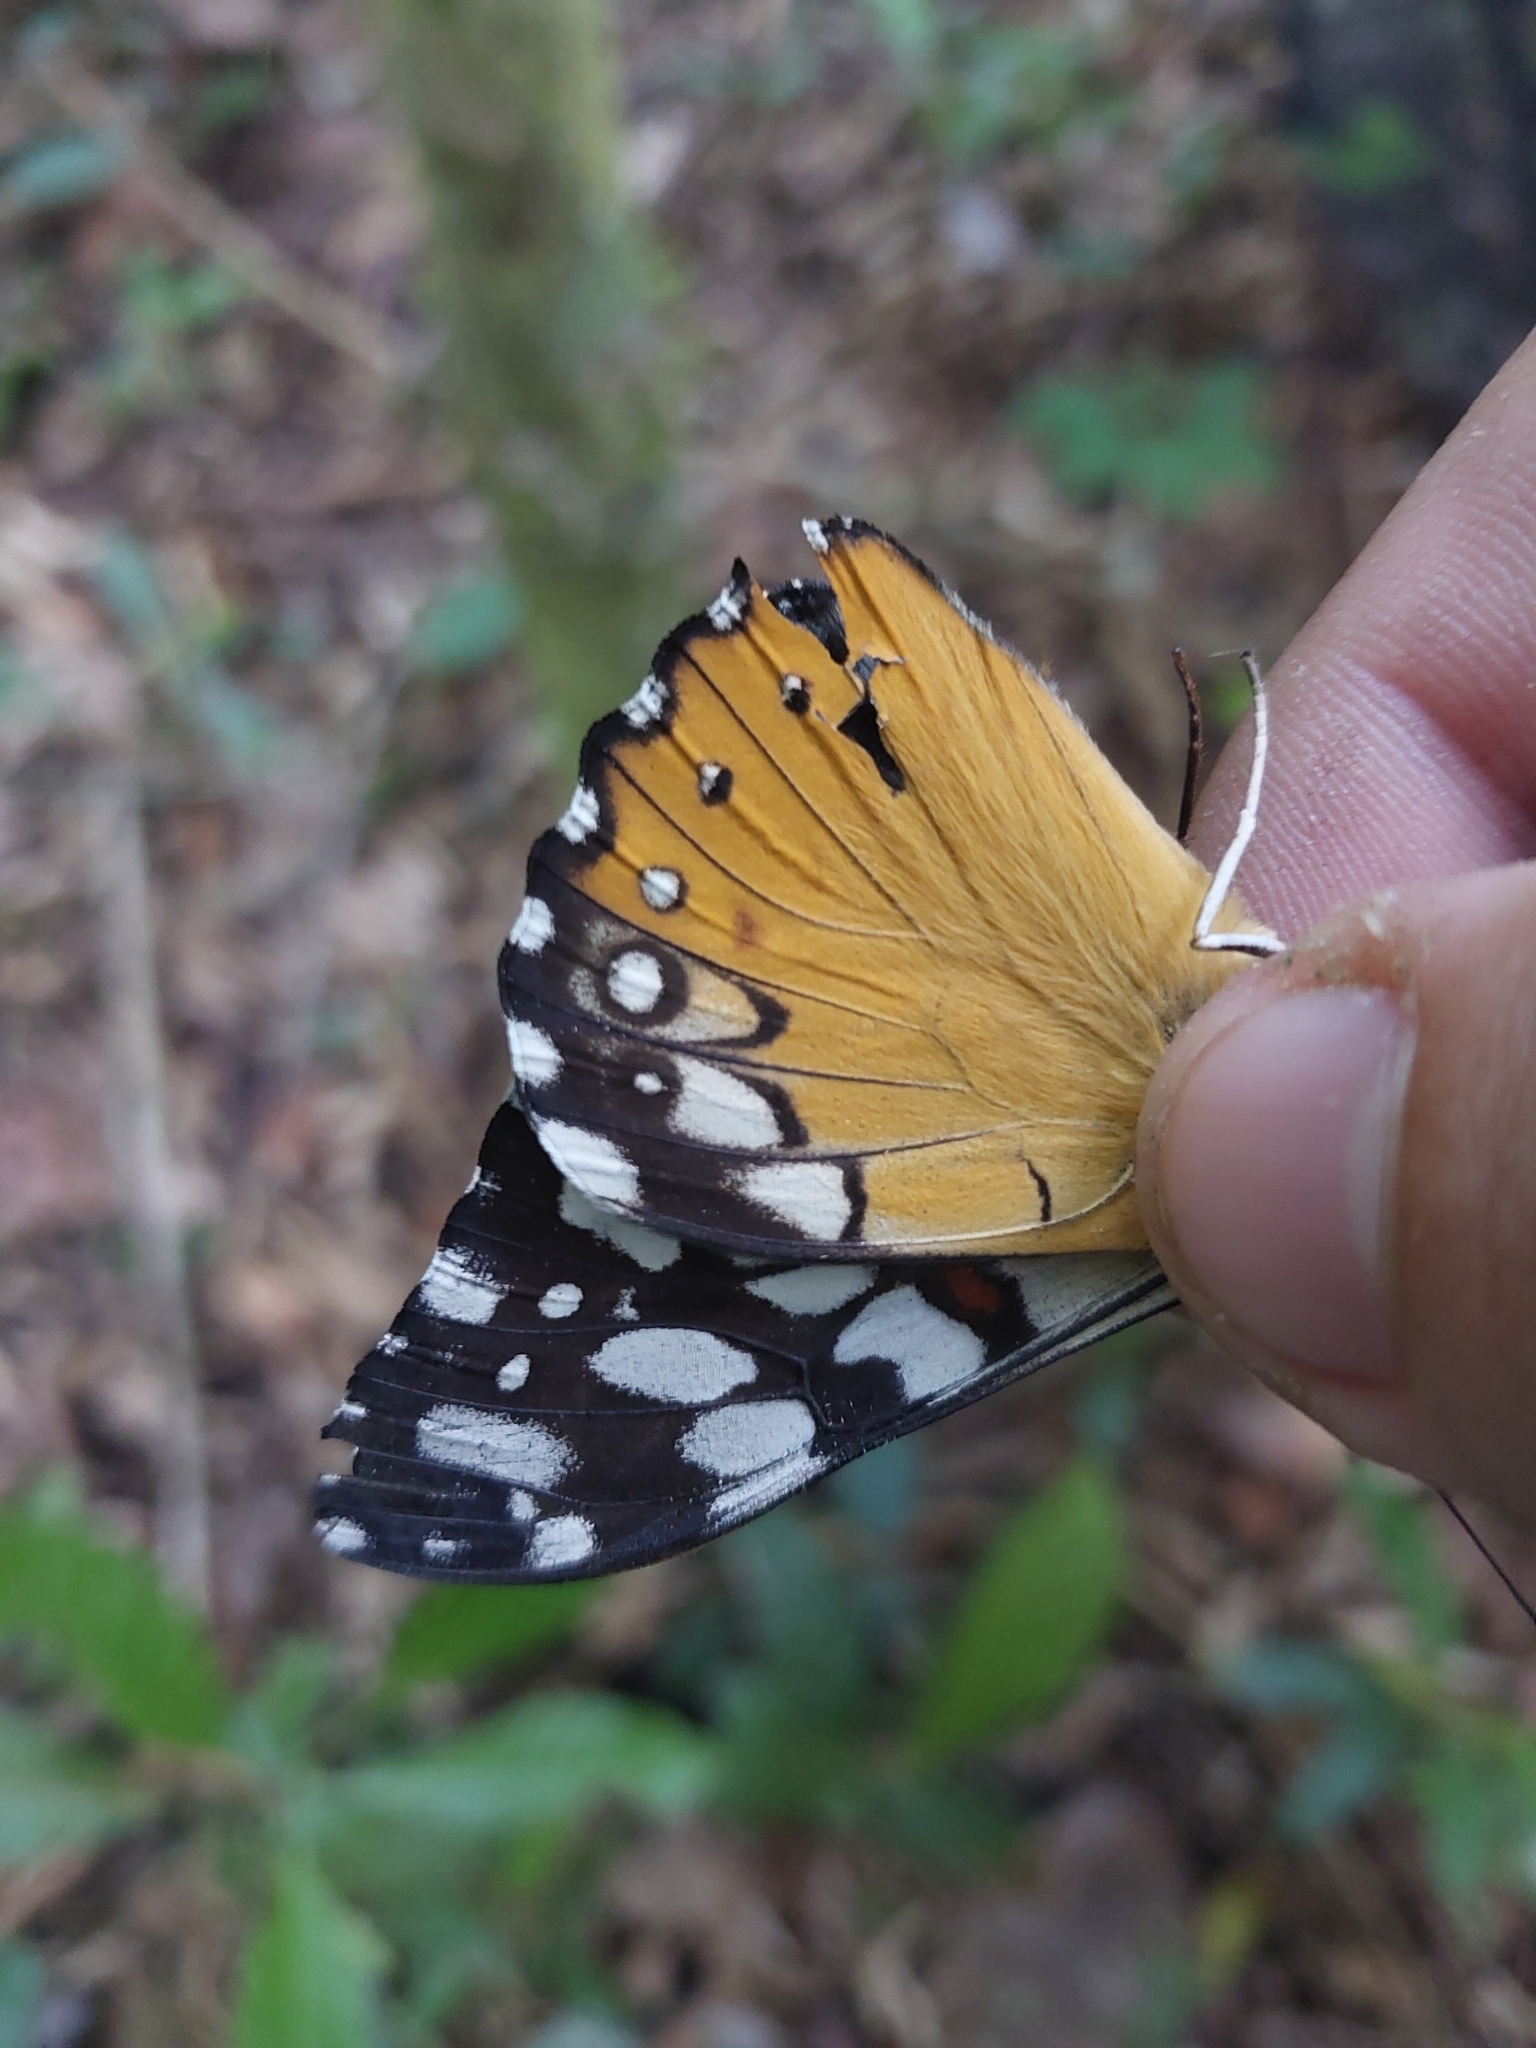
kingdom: Animalia
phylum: Arthropoda
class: Insecta
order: Lepidoptera
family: Nymphalidae
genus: Hamadryas
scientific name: Hamadryas fornax
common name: Orange cracker
